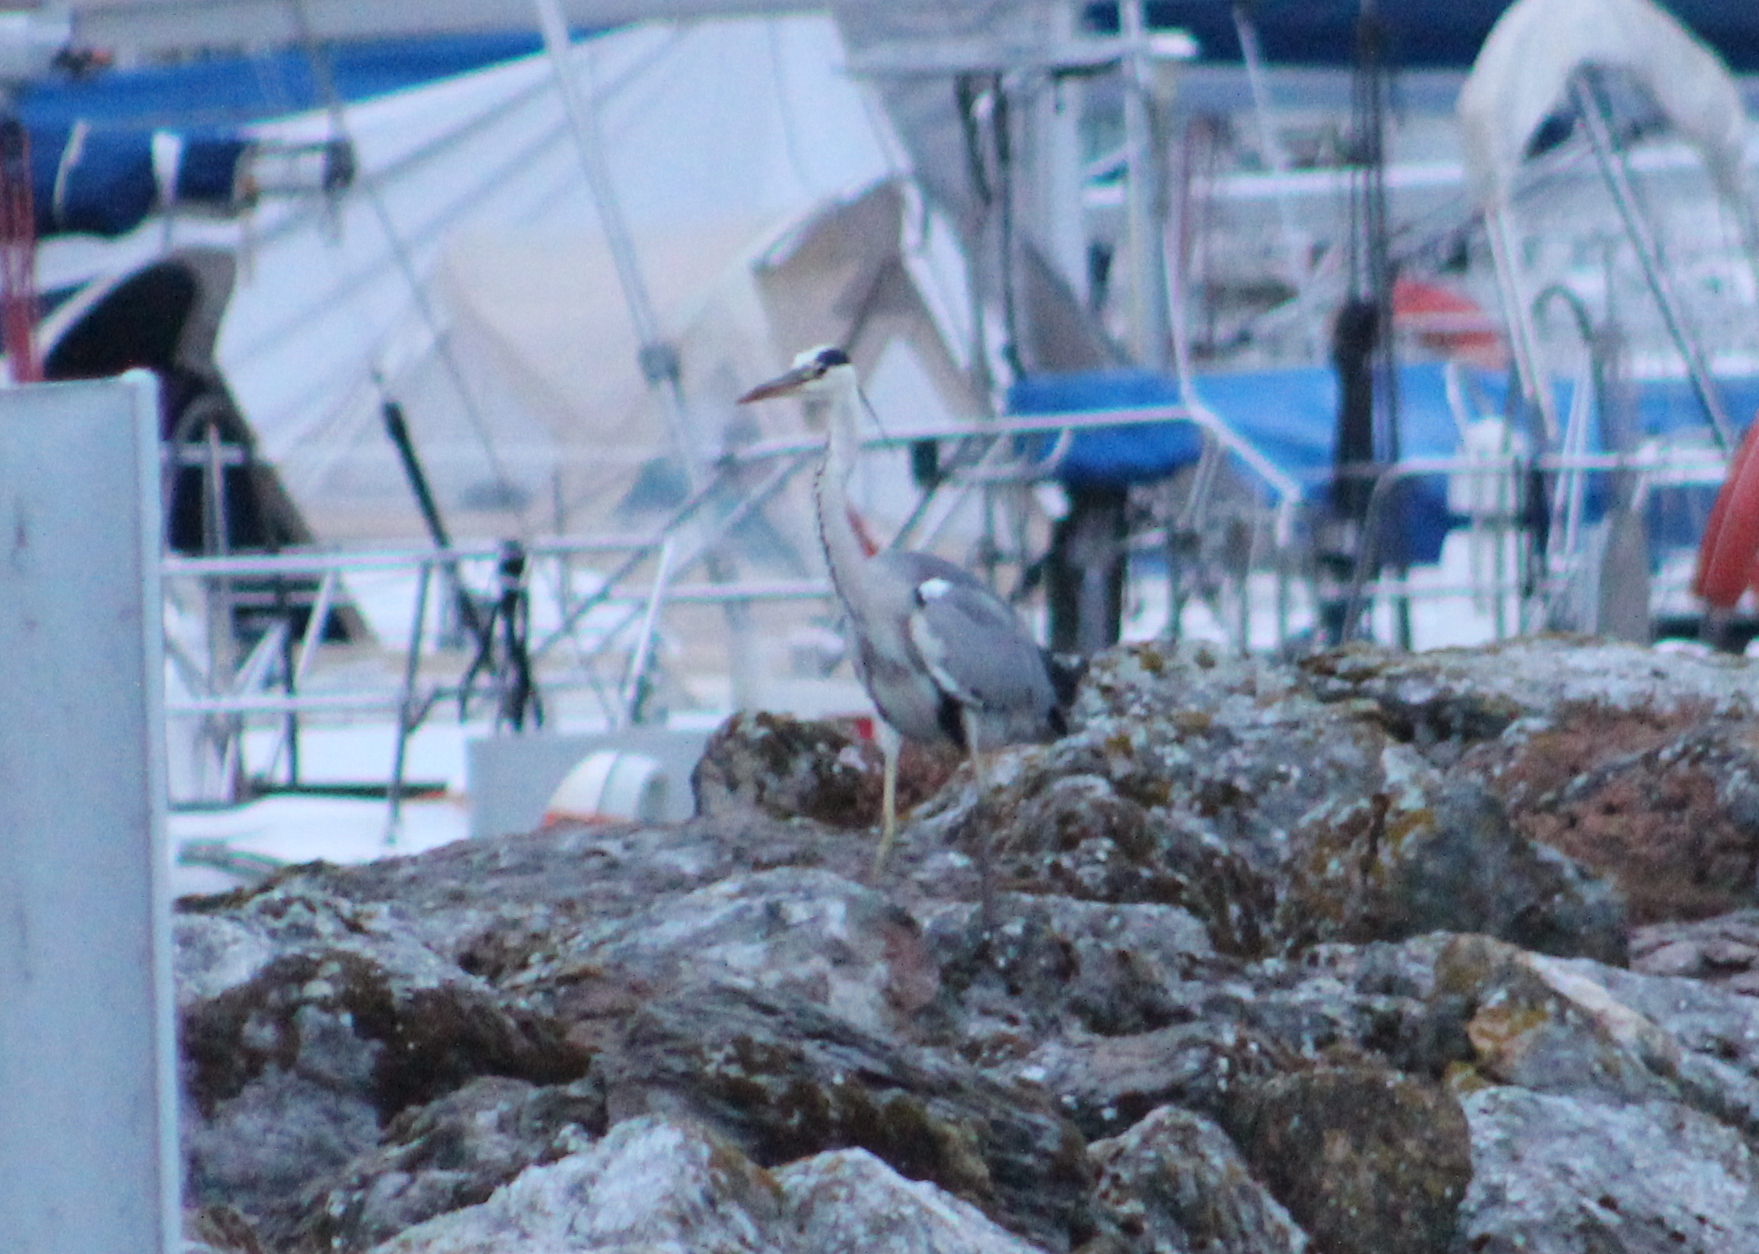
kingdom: Animalia
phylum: Chordata
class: Aves
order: Pelecaniformes
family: Ardeidae
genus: Ardea
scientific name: Ardea cinerea
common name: Grey heron
